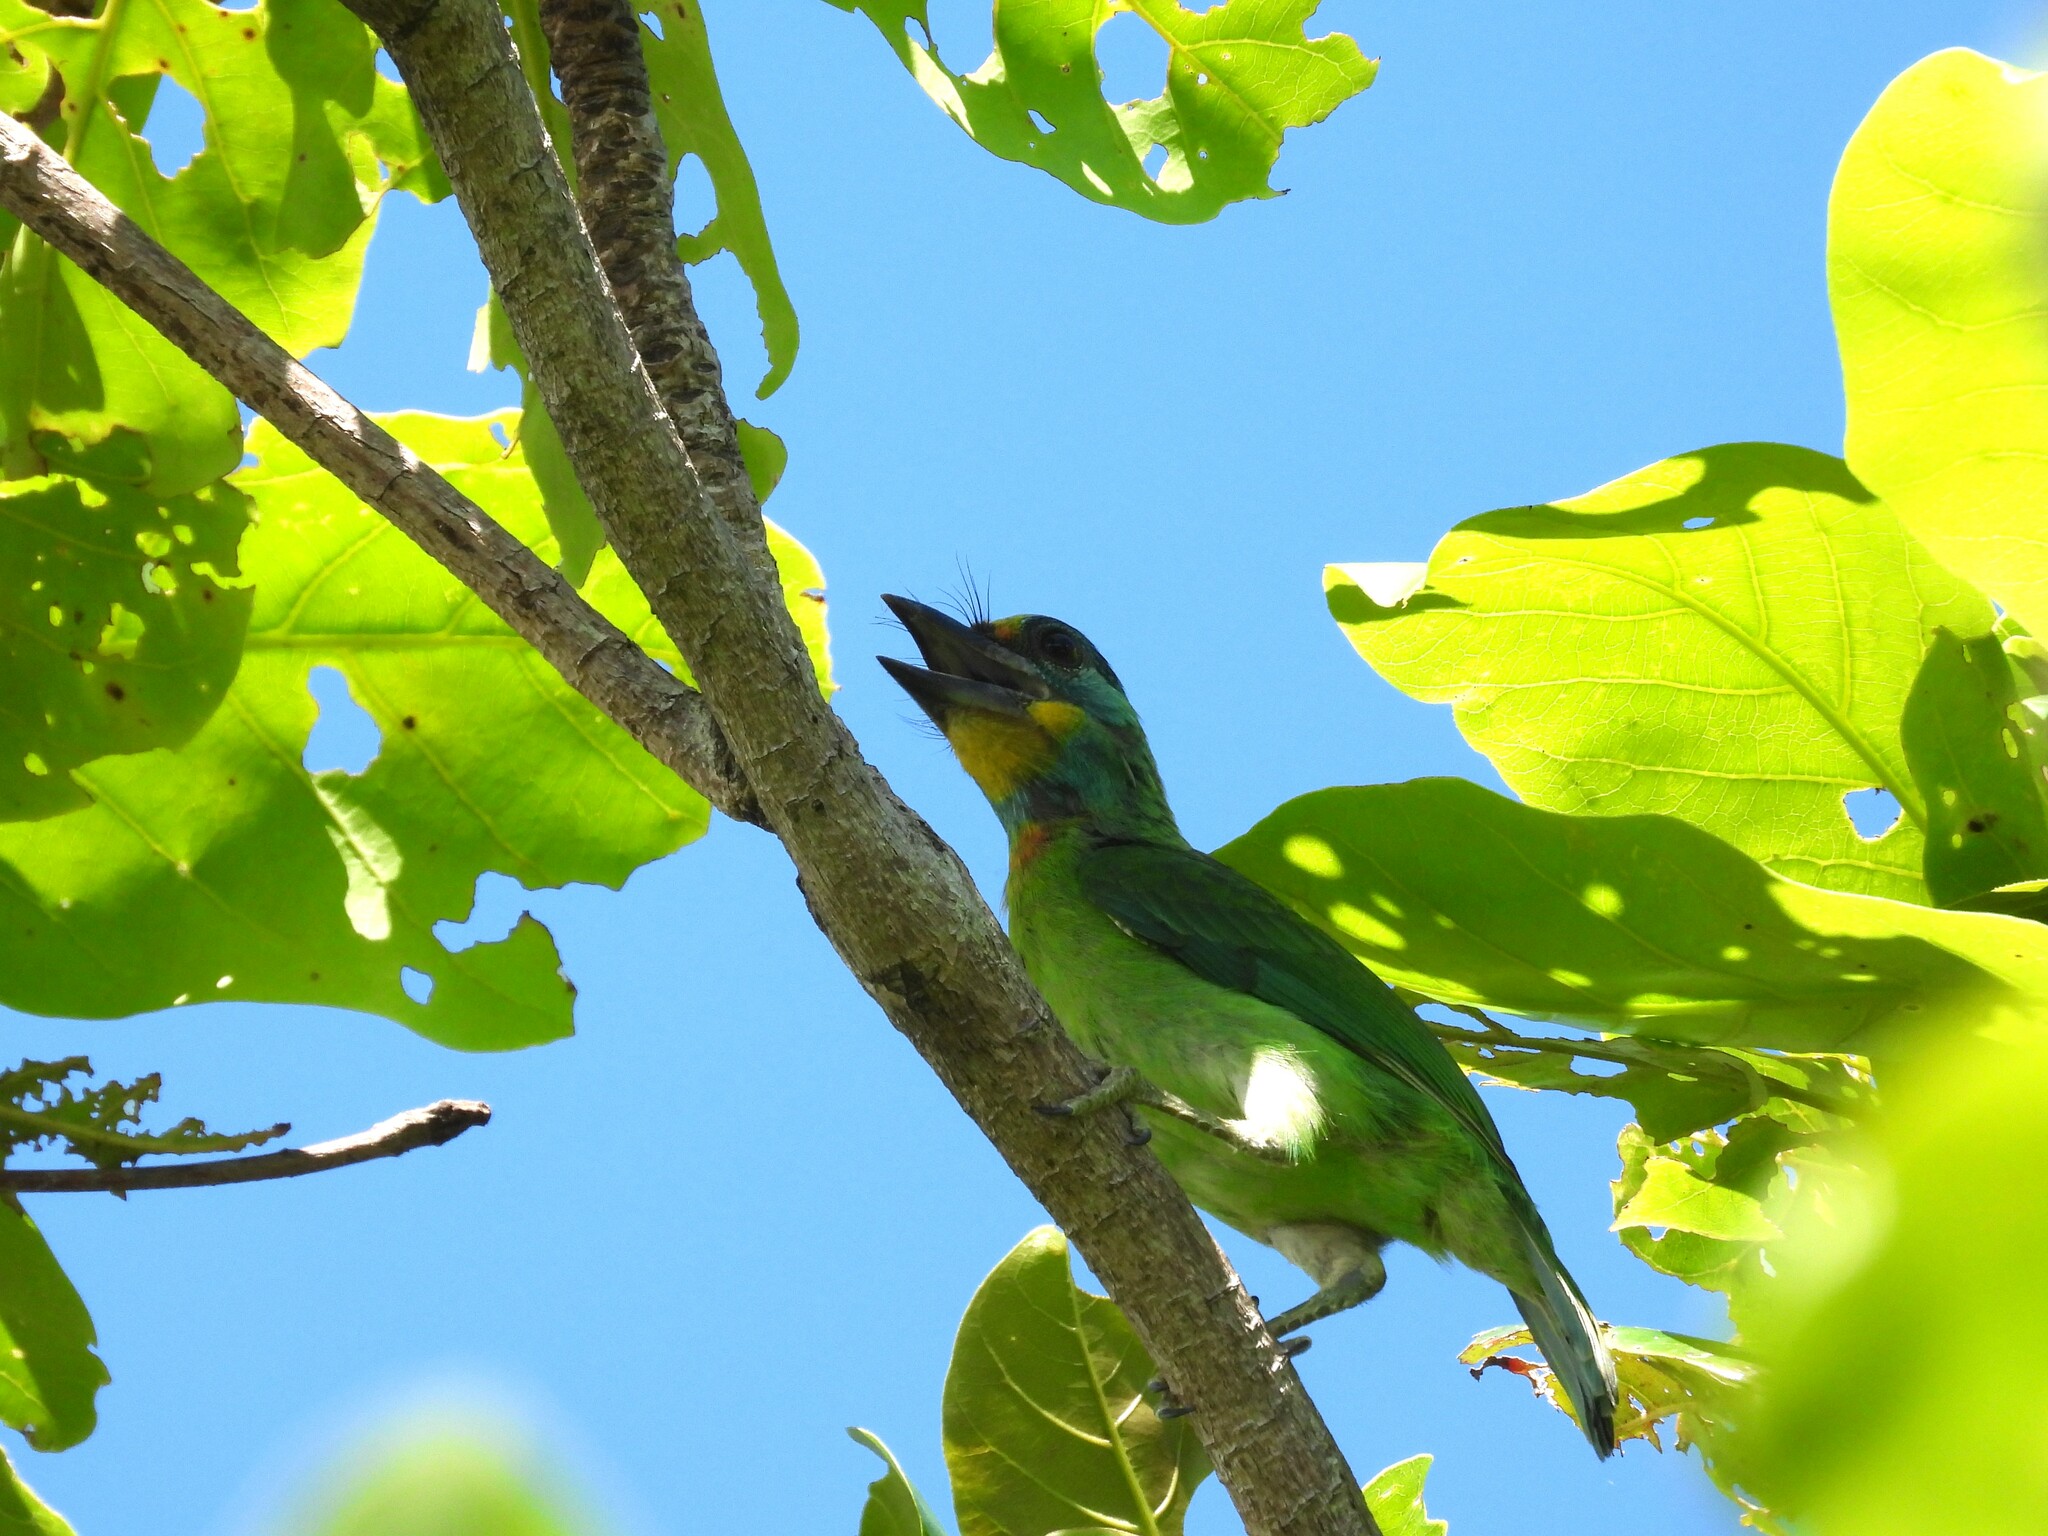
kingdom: Animalia
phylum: Chordata
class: Aves
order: Piciformes
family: Megalaimidae
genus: Psilopogon
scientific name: Psilopogon nuchalis
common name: Taiwan barbet
